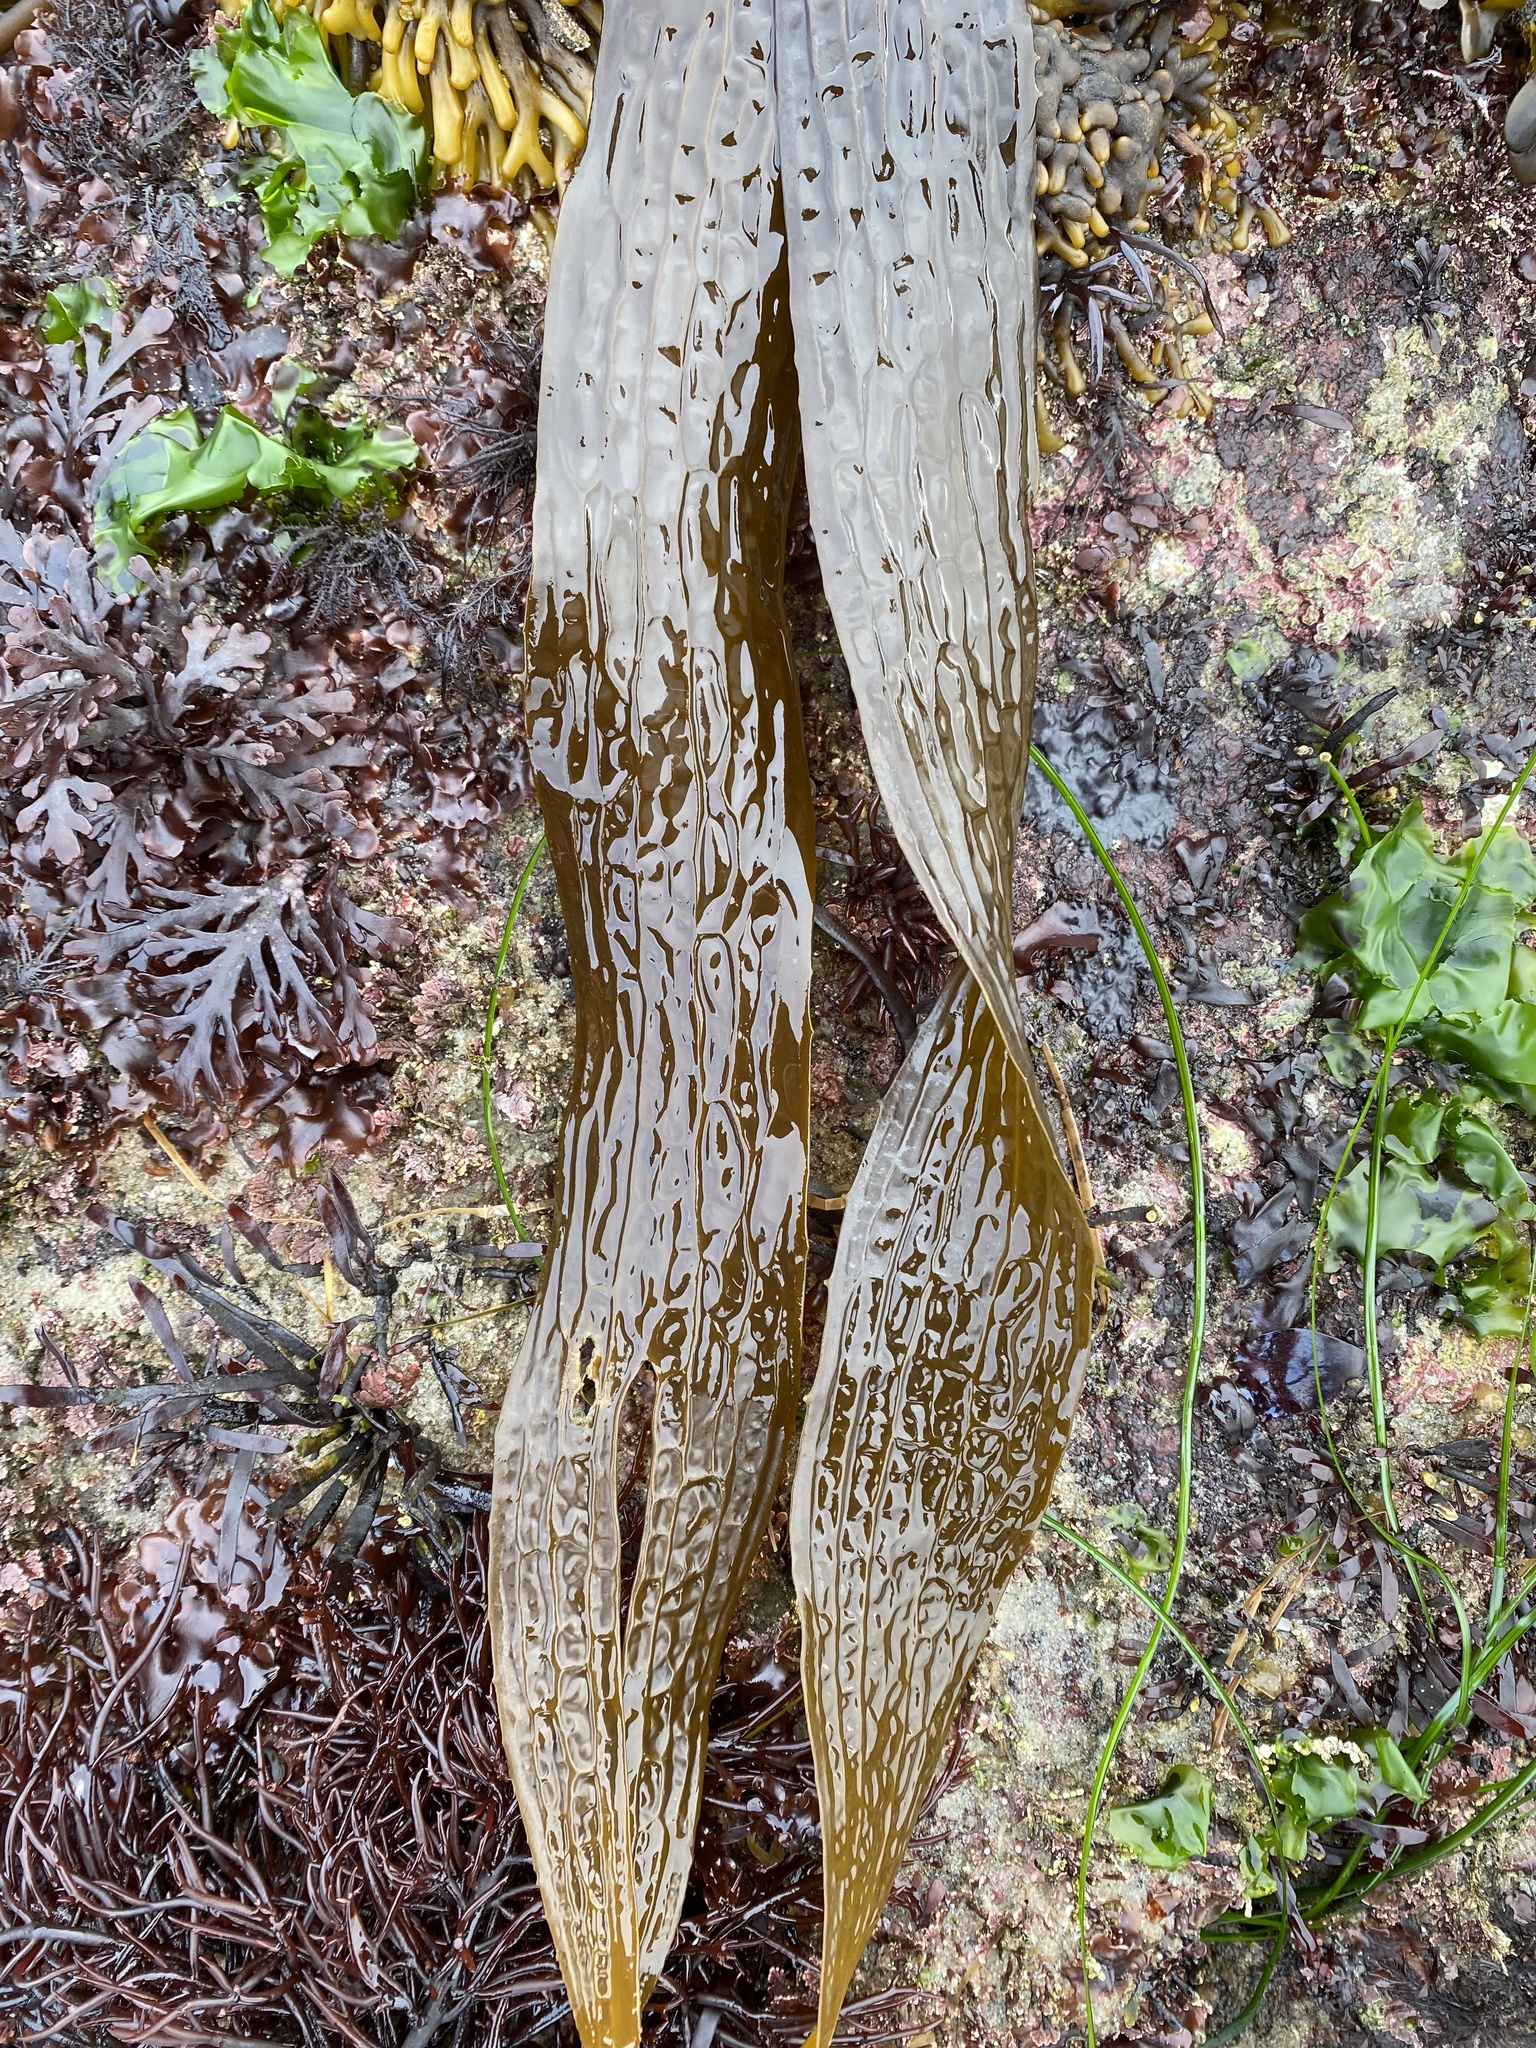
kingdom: Chromista
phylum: Ochrophyta
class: Phaeophyceae
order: Laminariales
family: Costariaceae
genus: Dictyoneurum
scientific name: Dictyoneurum californicum
